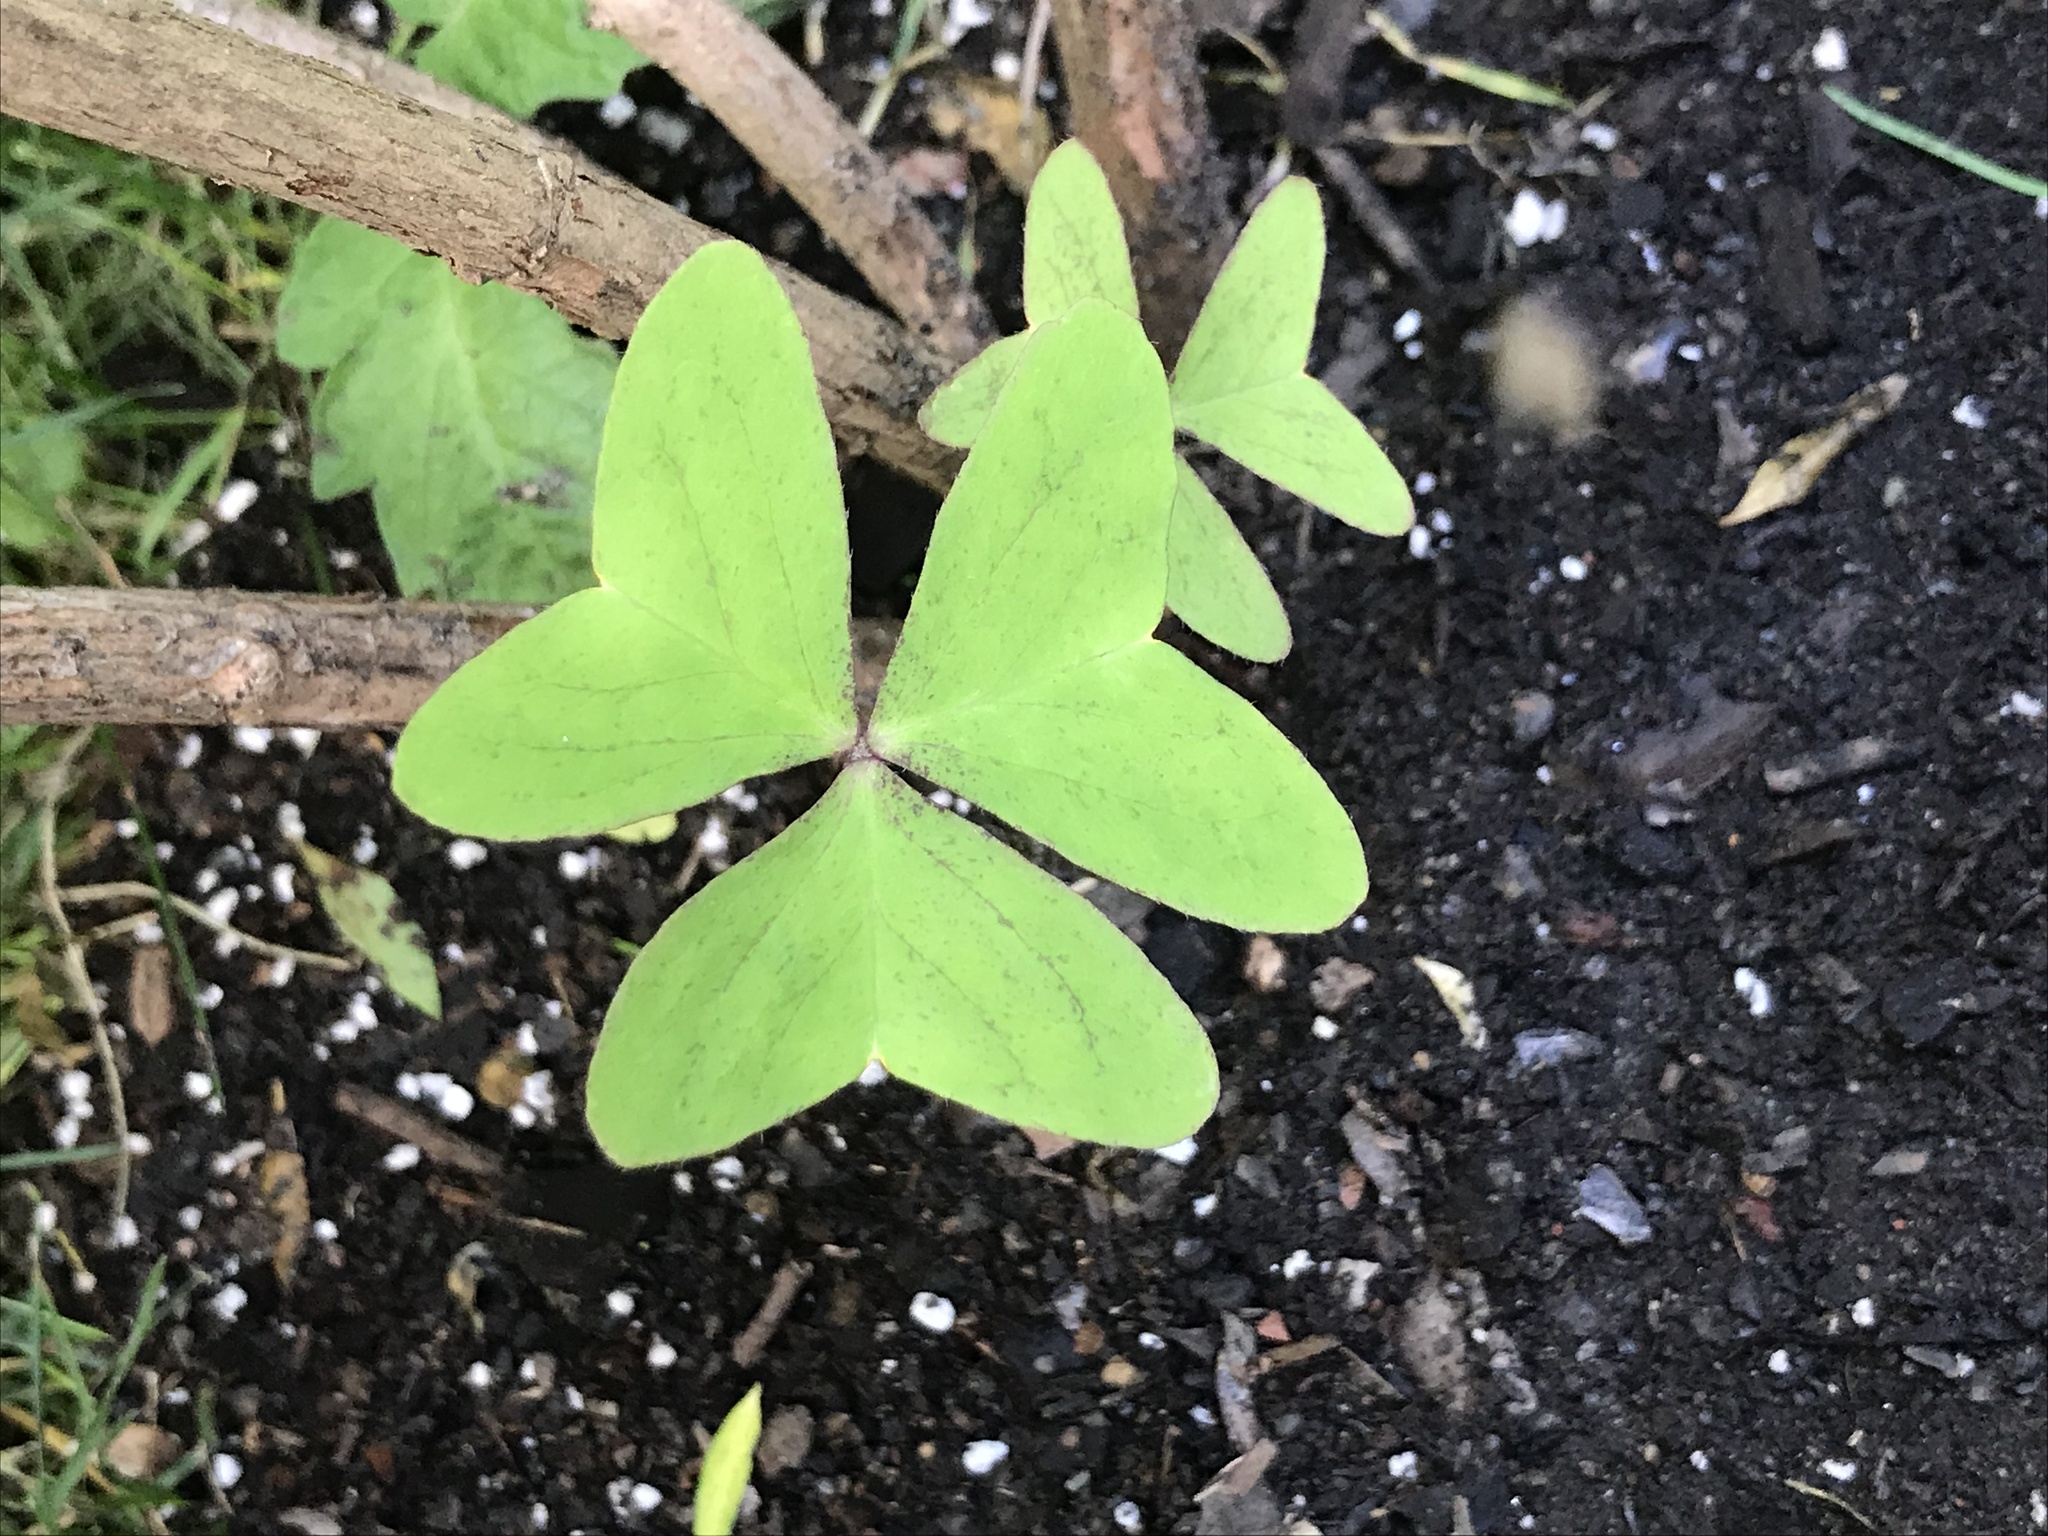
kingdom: Plantae
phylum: Tracheophyta
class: Magnoliopsida
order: Oxalidales
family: Oxalidaceae
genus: Oxalis
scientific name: Oxalis latifolia
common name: Garden pink-sorrel
